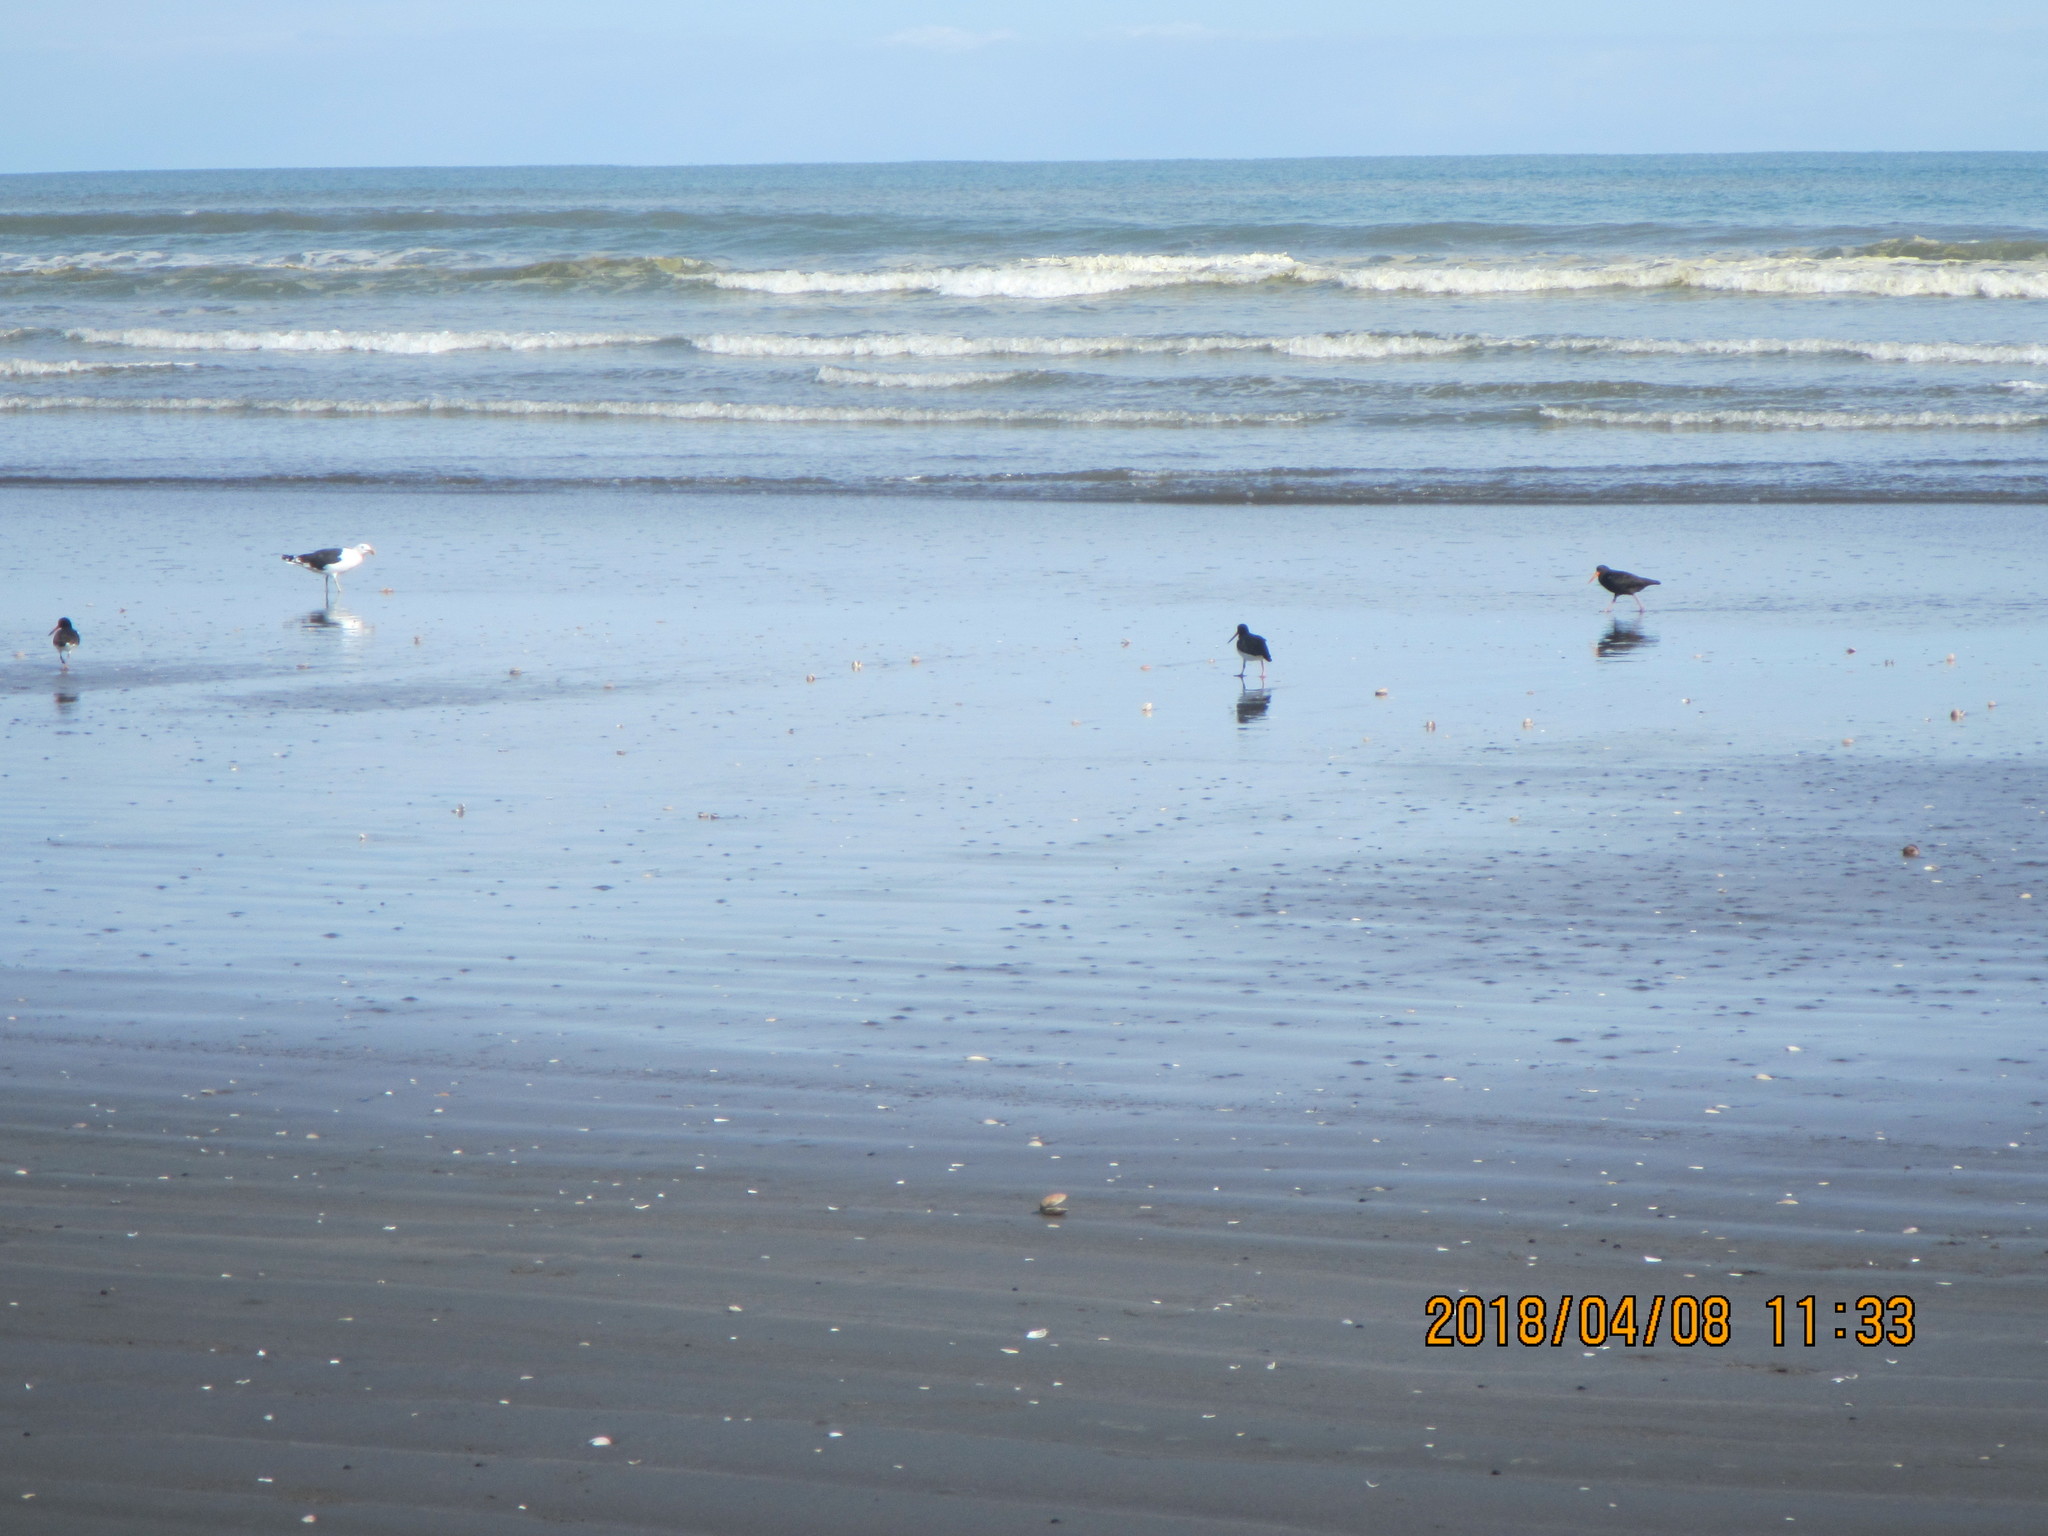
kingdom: Animalia
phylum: Chordata
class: Aves
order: Charadriiformes
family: Haematopodidae
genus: Haematopus
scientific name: Haematopus unicolor
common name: Variable oystercatcher
